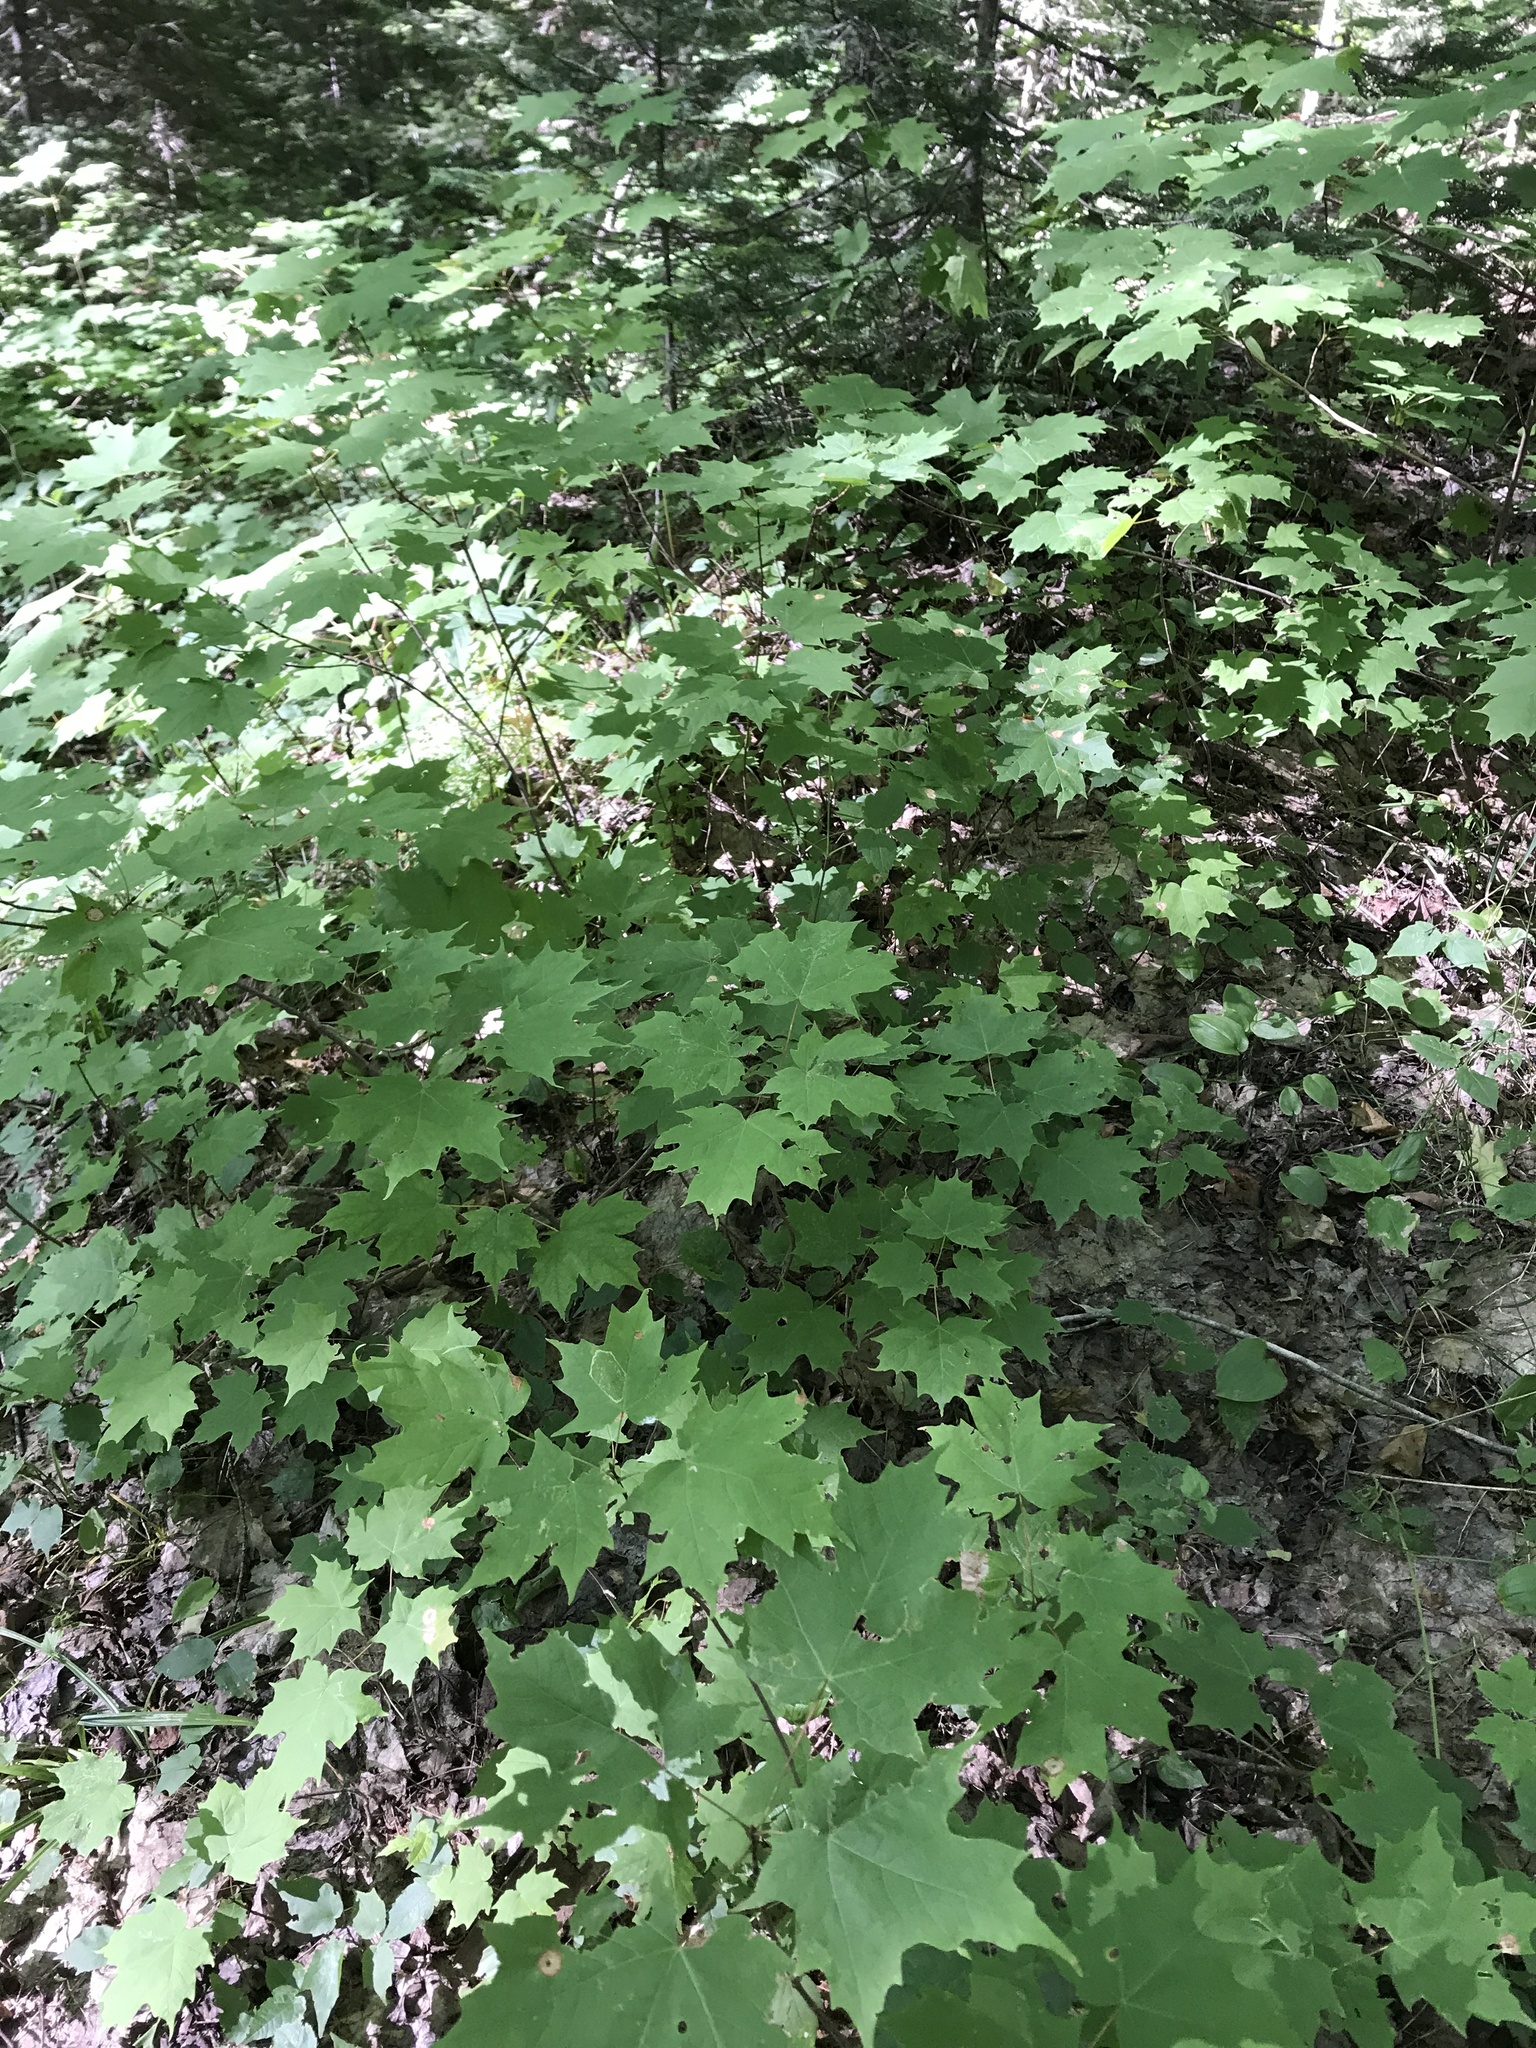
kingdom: Plantae
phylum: Tracheophyta
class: Magnoliopsida
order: Sapindales
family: Sapindaceae
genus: Acer
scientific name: Acer saccharum
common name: Sugar maple
